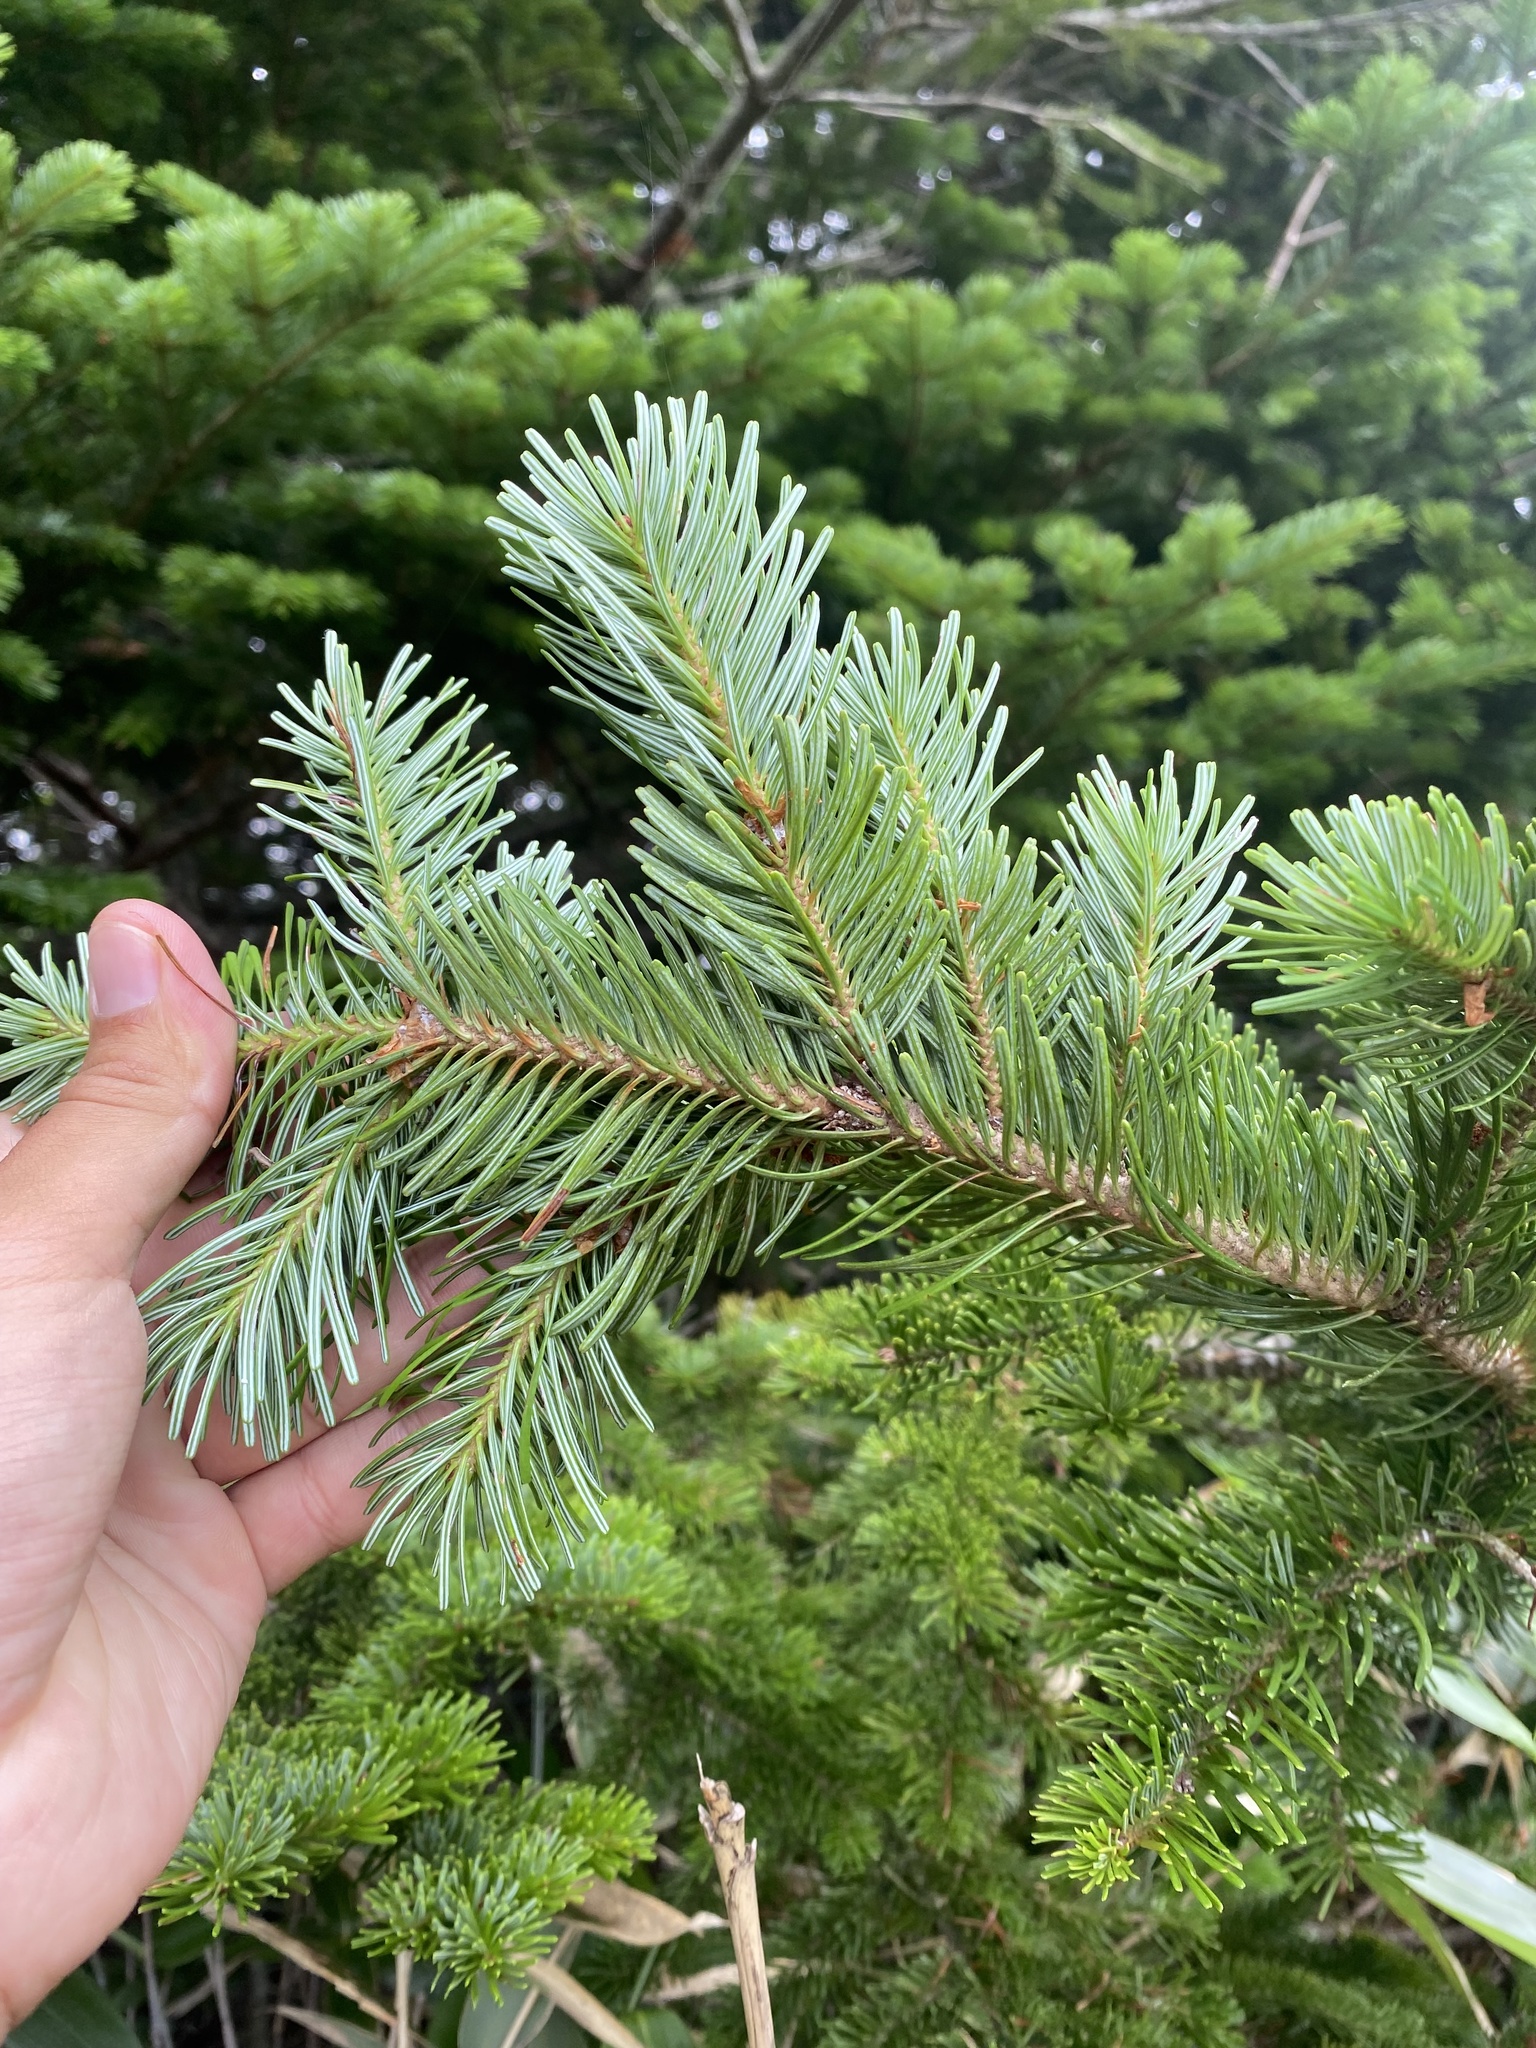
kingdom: Plantae
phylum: Tracheophyta
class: Pinopsida
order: Pinales
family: Pinaceae
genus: Picea
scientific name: Picea jezoensis
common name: Yeddo spruce
